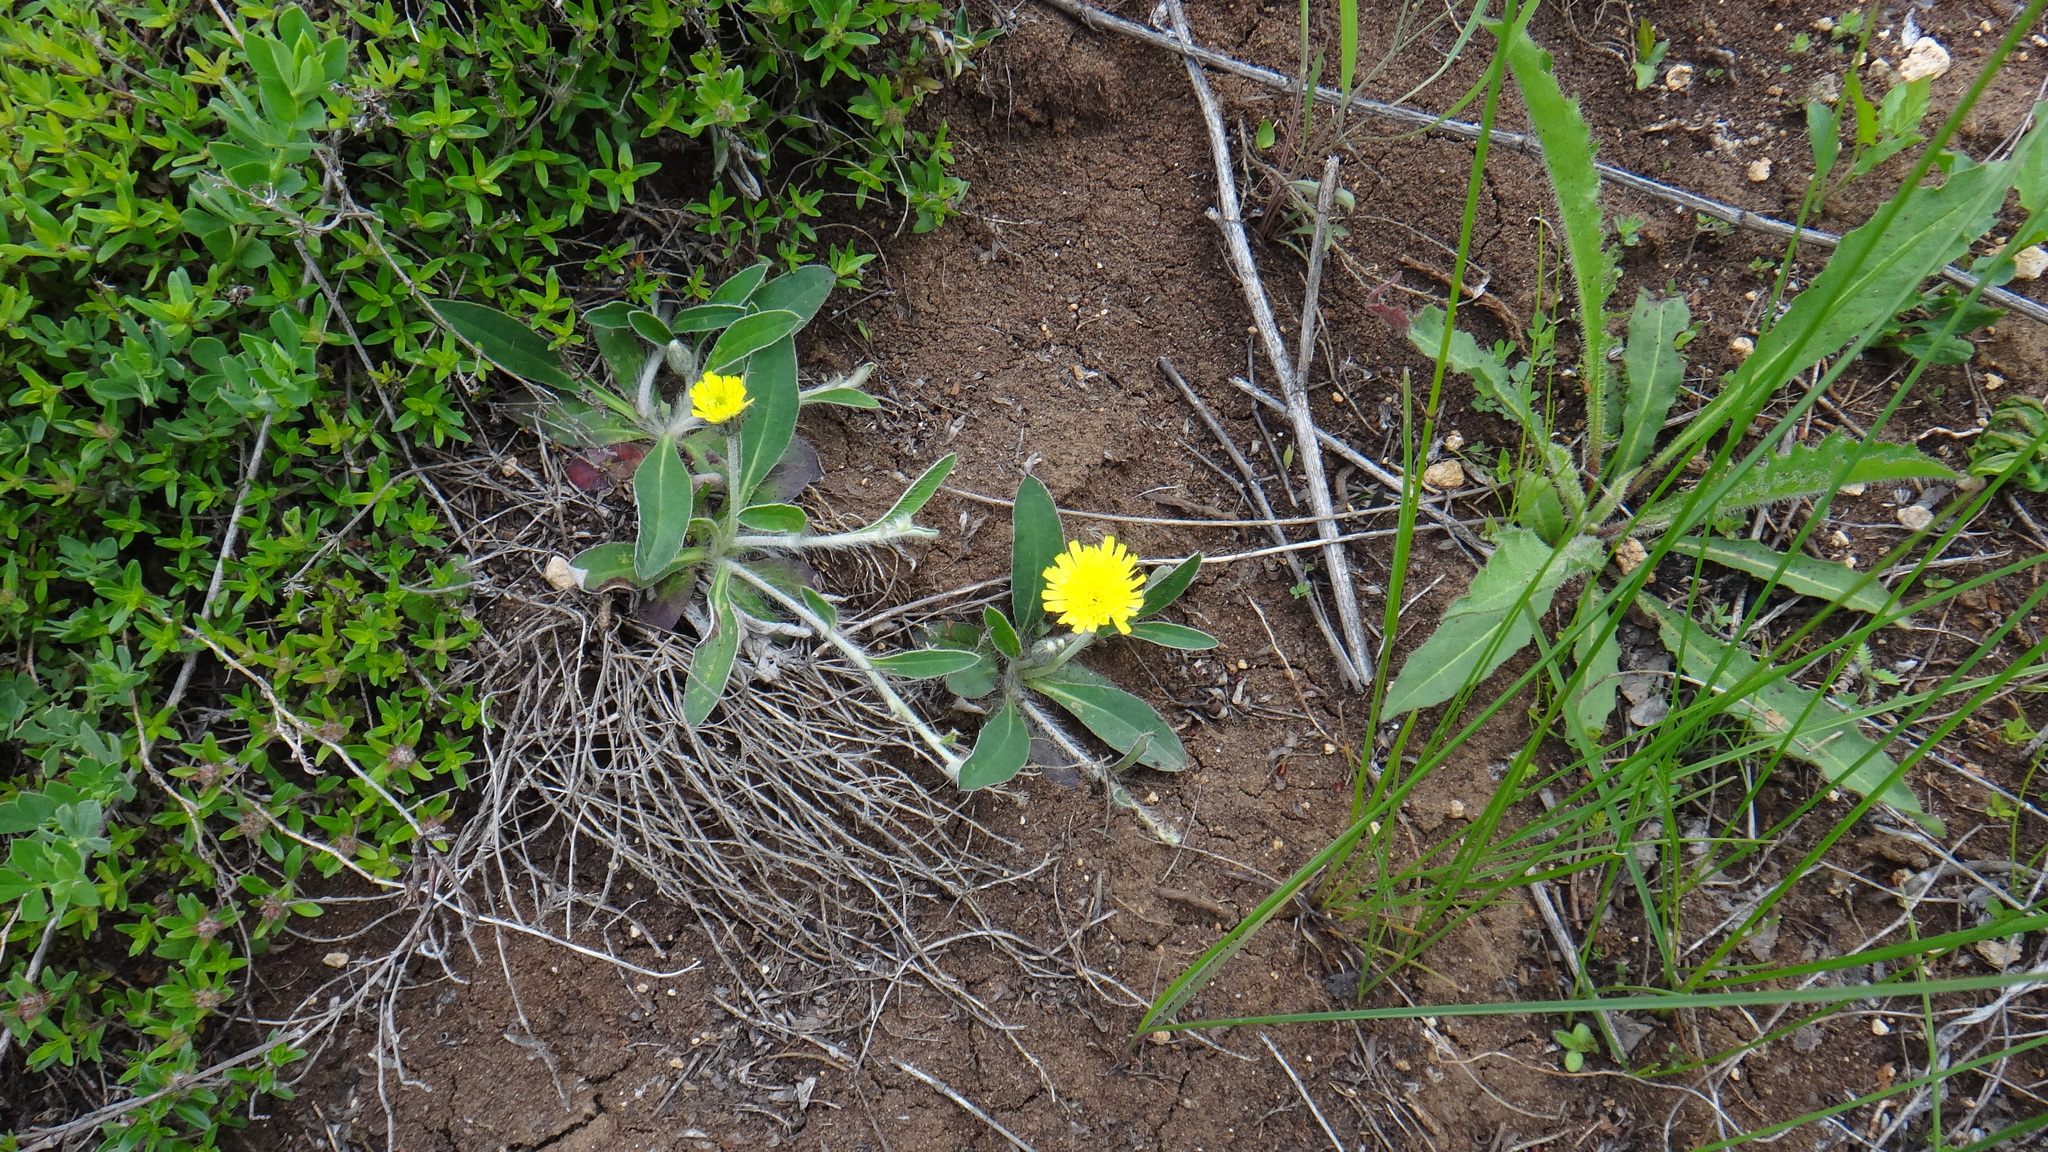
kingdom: Plantae
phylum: Tracheophyta
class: Magnoliopsida
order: Asterales
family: Asteraceae
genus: Pilosella
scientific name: Pilosella officinarum
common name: Mouse-ear hawkweed
